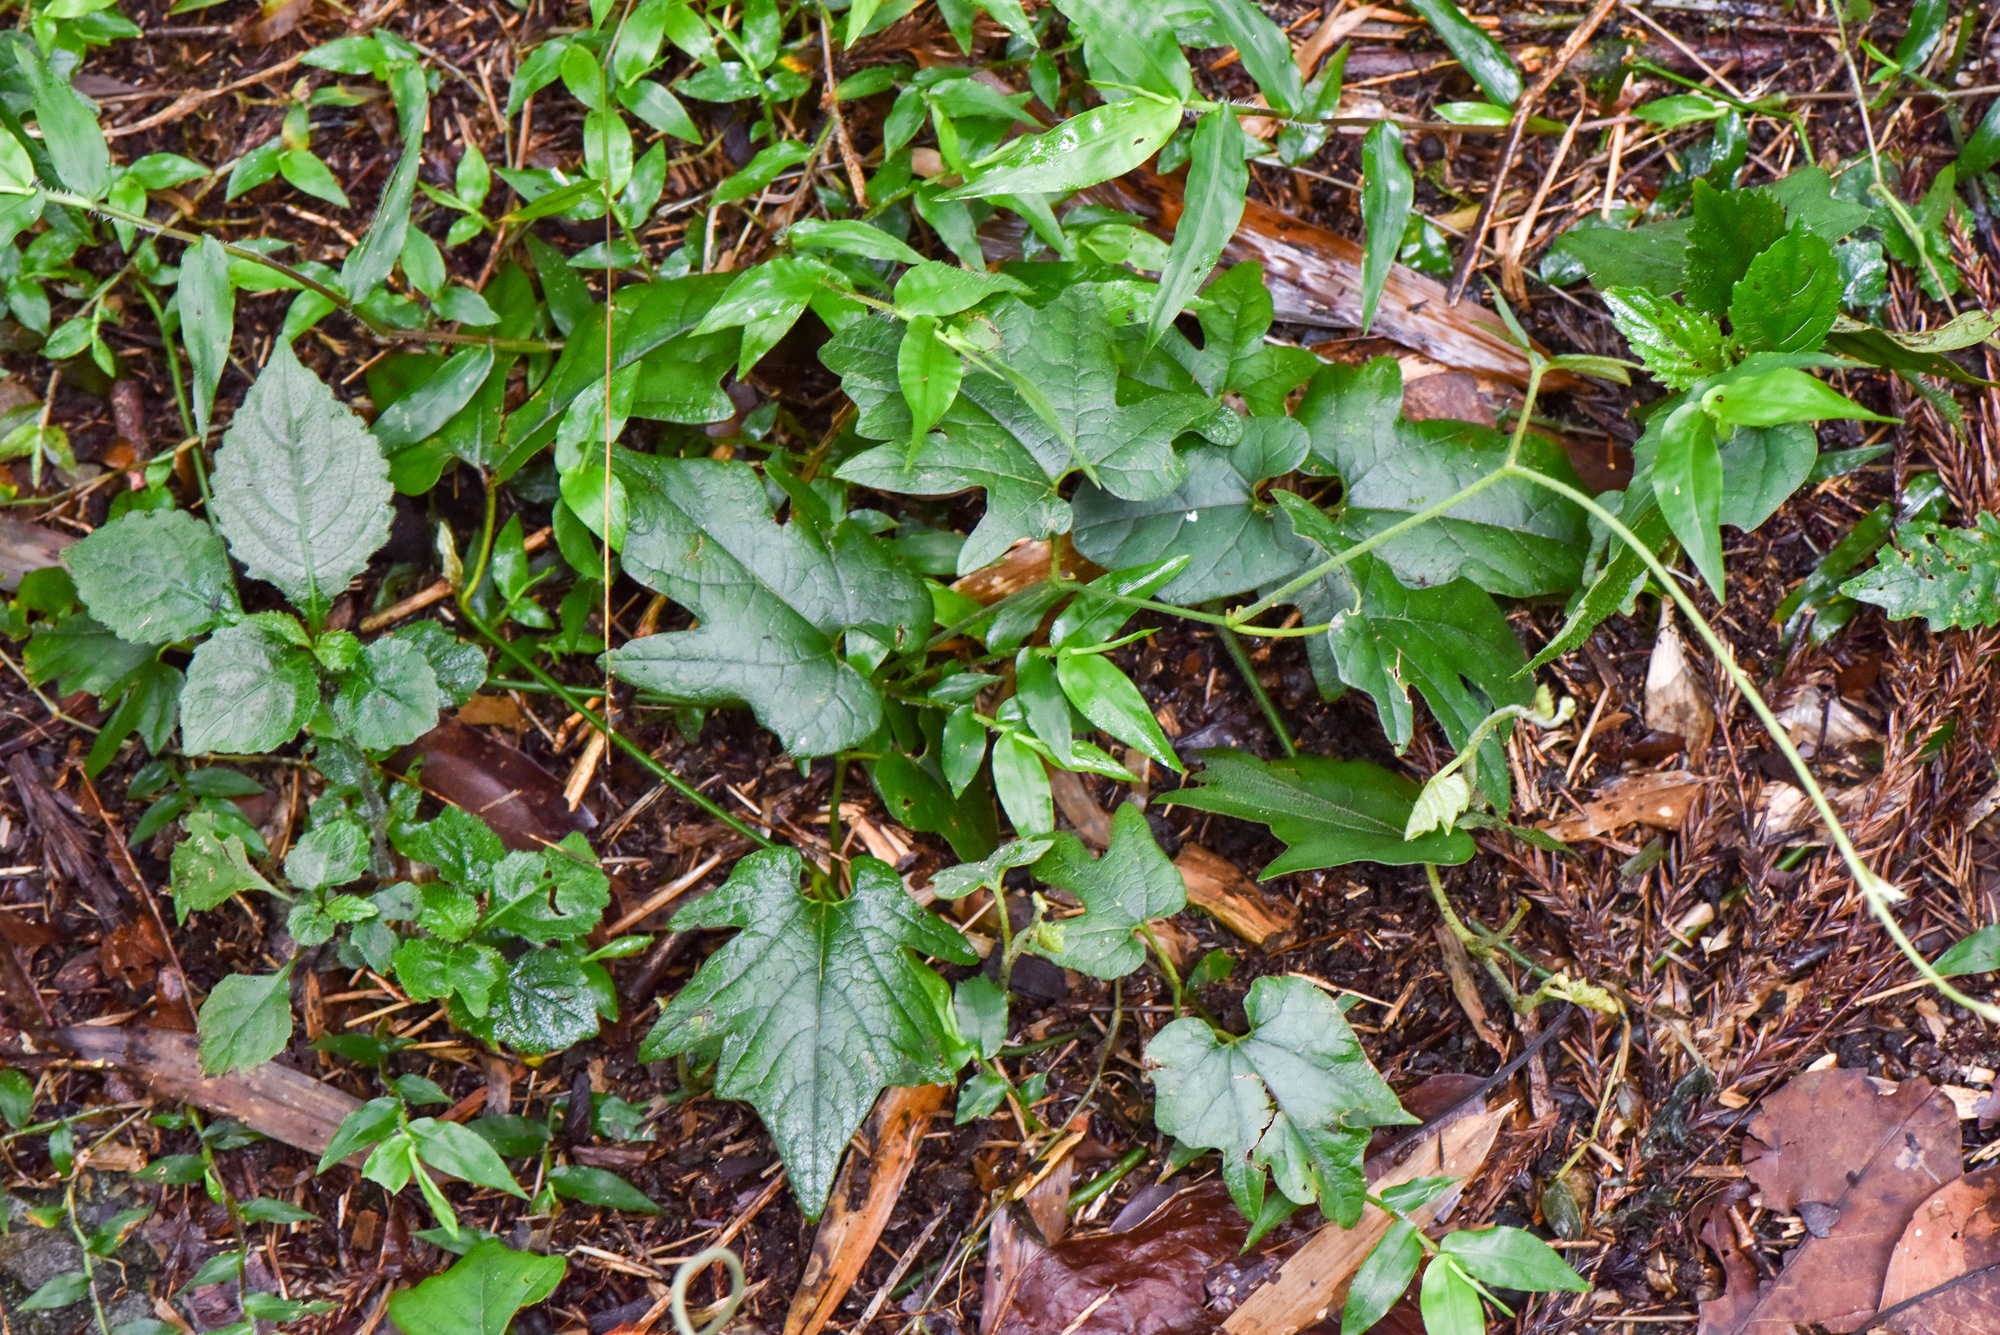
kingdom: Plantae
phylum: Tracheophyta
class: Magnoliopsida
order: Piperales
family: Aristolochiaceae
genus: Isotrema
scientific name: Isotrema cucurbitifolium
